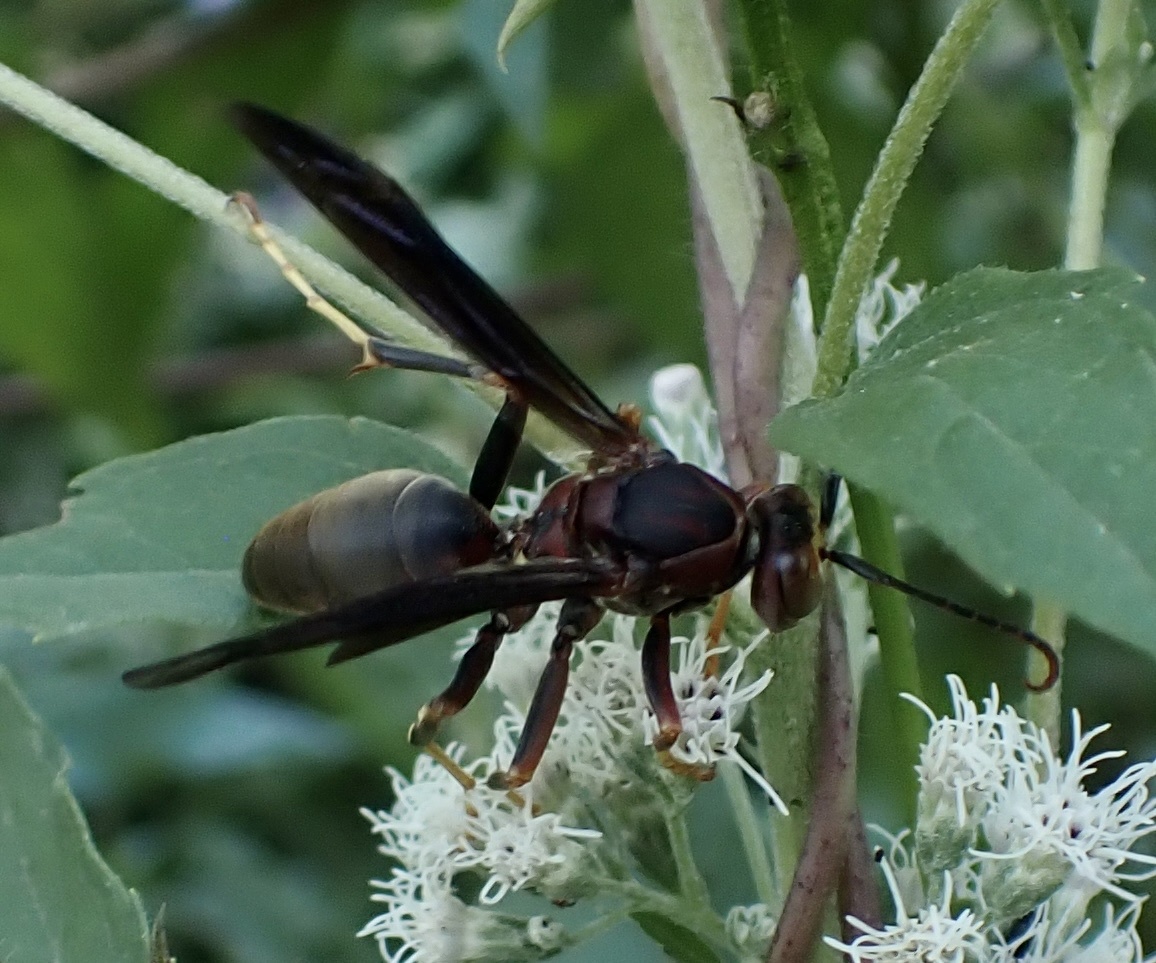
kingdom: Animalia
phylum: Arthropoda
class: Insecta
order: Hymenoptera
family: Eumenidae
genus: Polistes
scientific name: Polistes metricus
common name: Metric paper wasp
